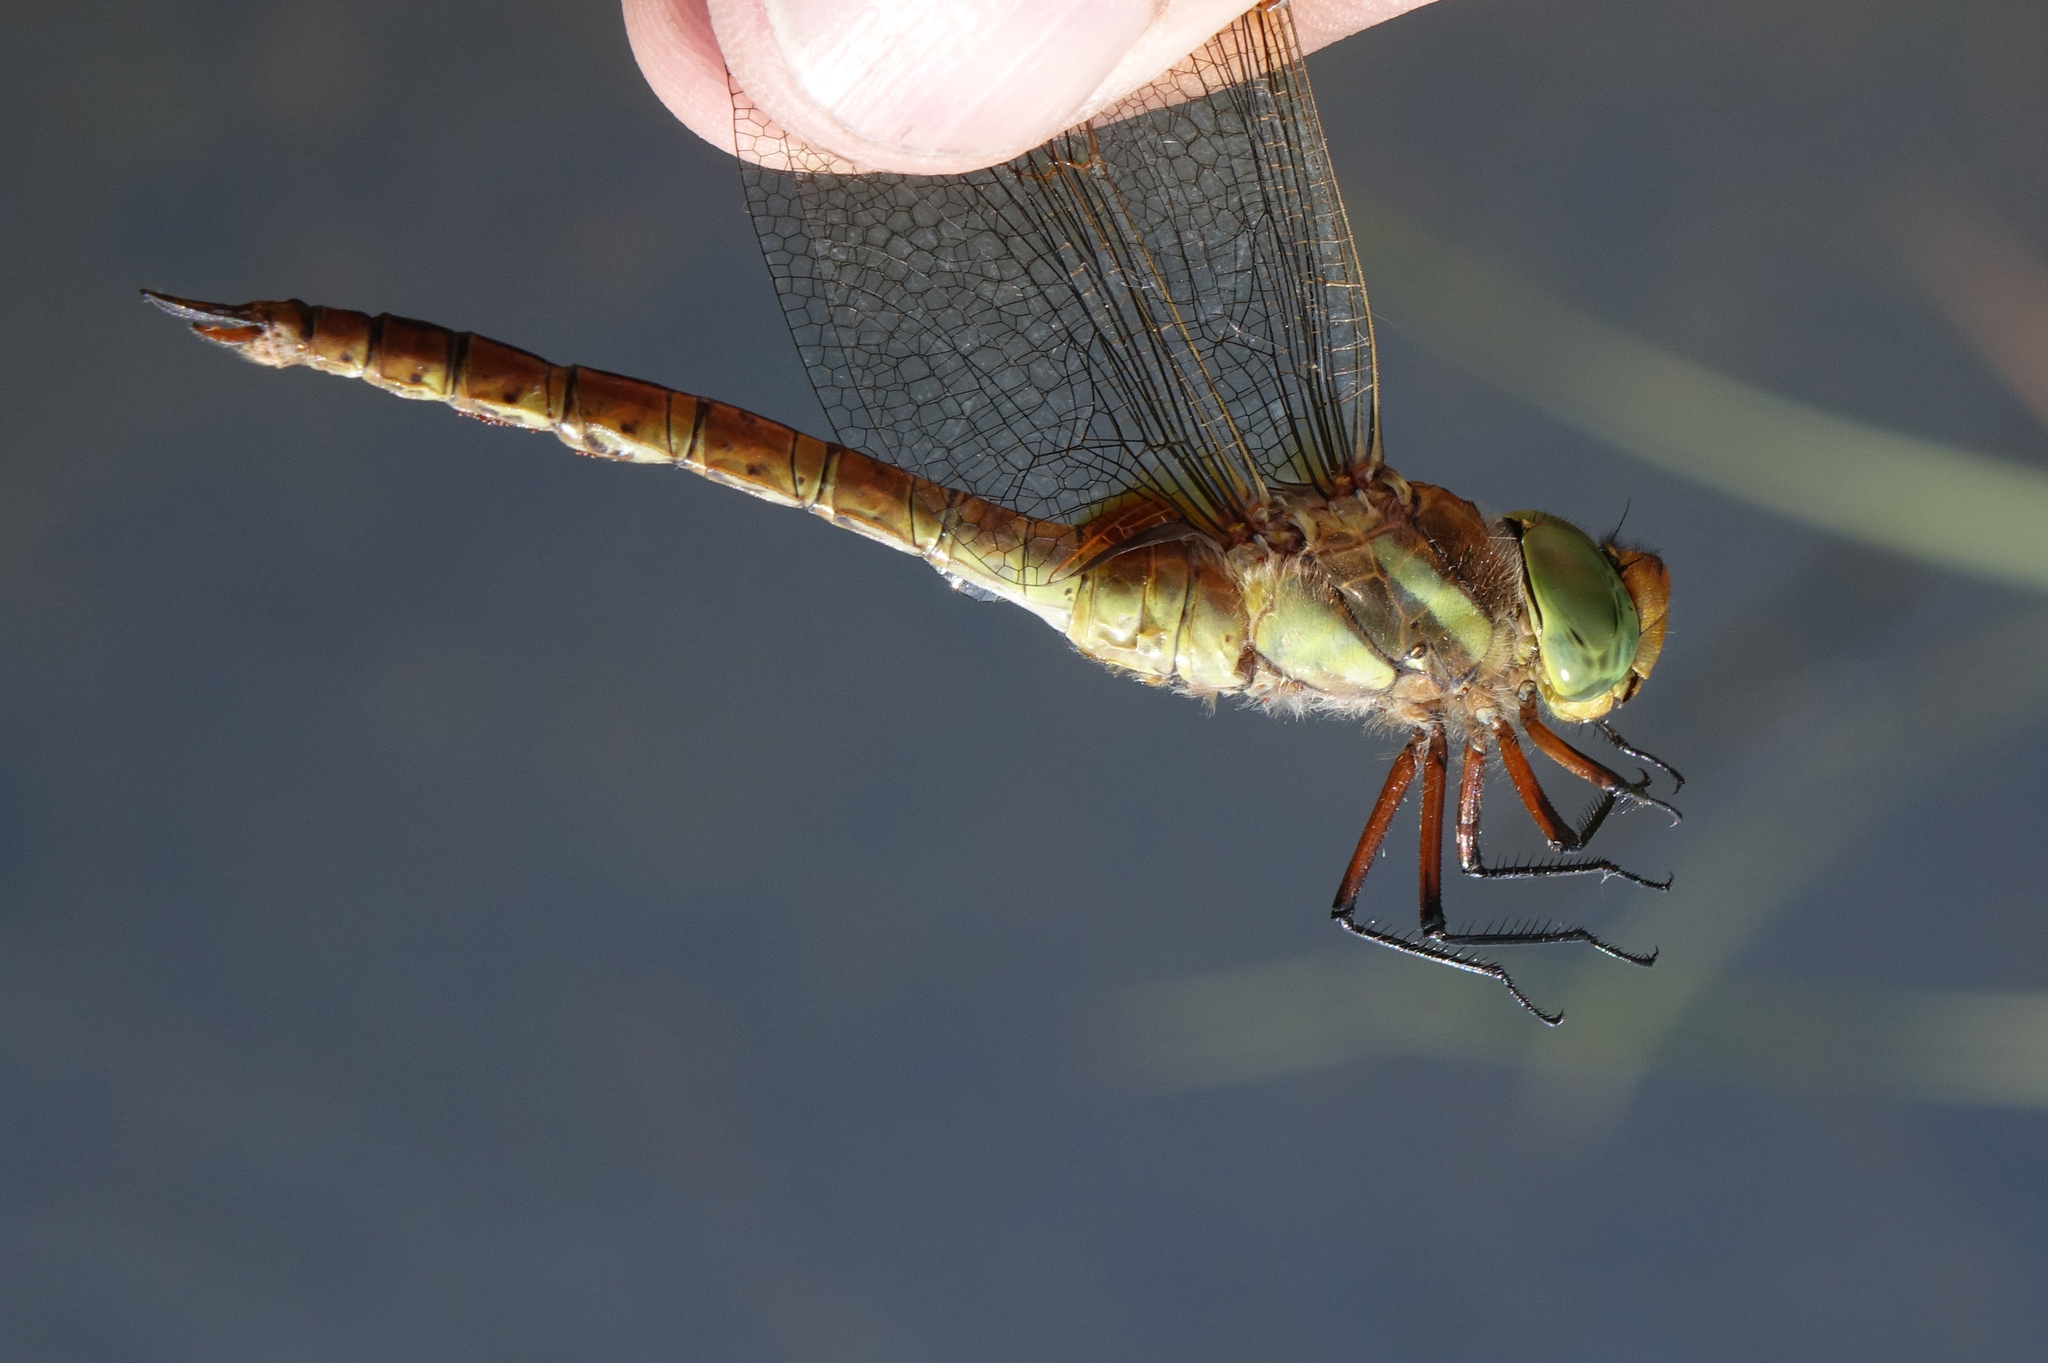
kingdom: Animalia
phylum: Arthropoda
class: Insecta
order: Odonata
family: Aeshnidae
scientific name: Aeshnidae
